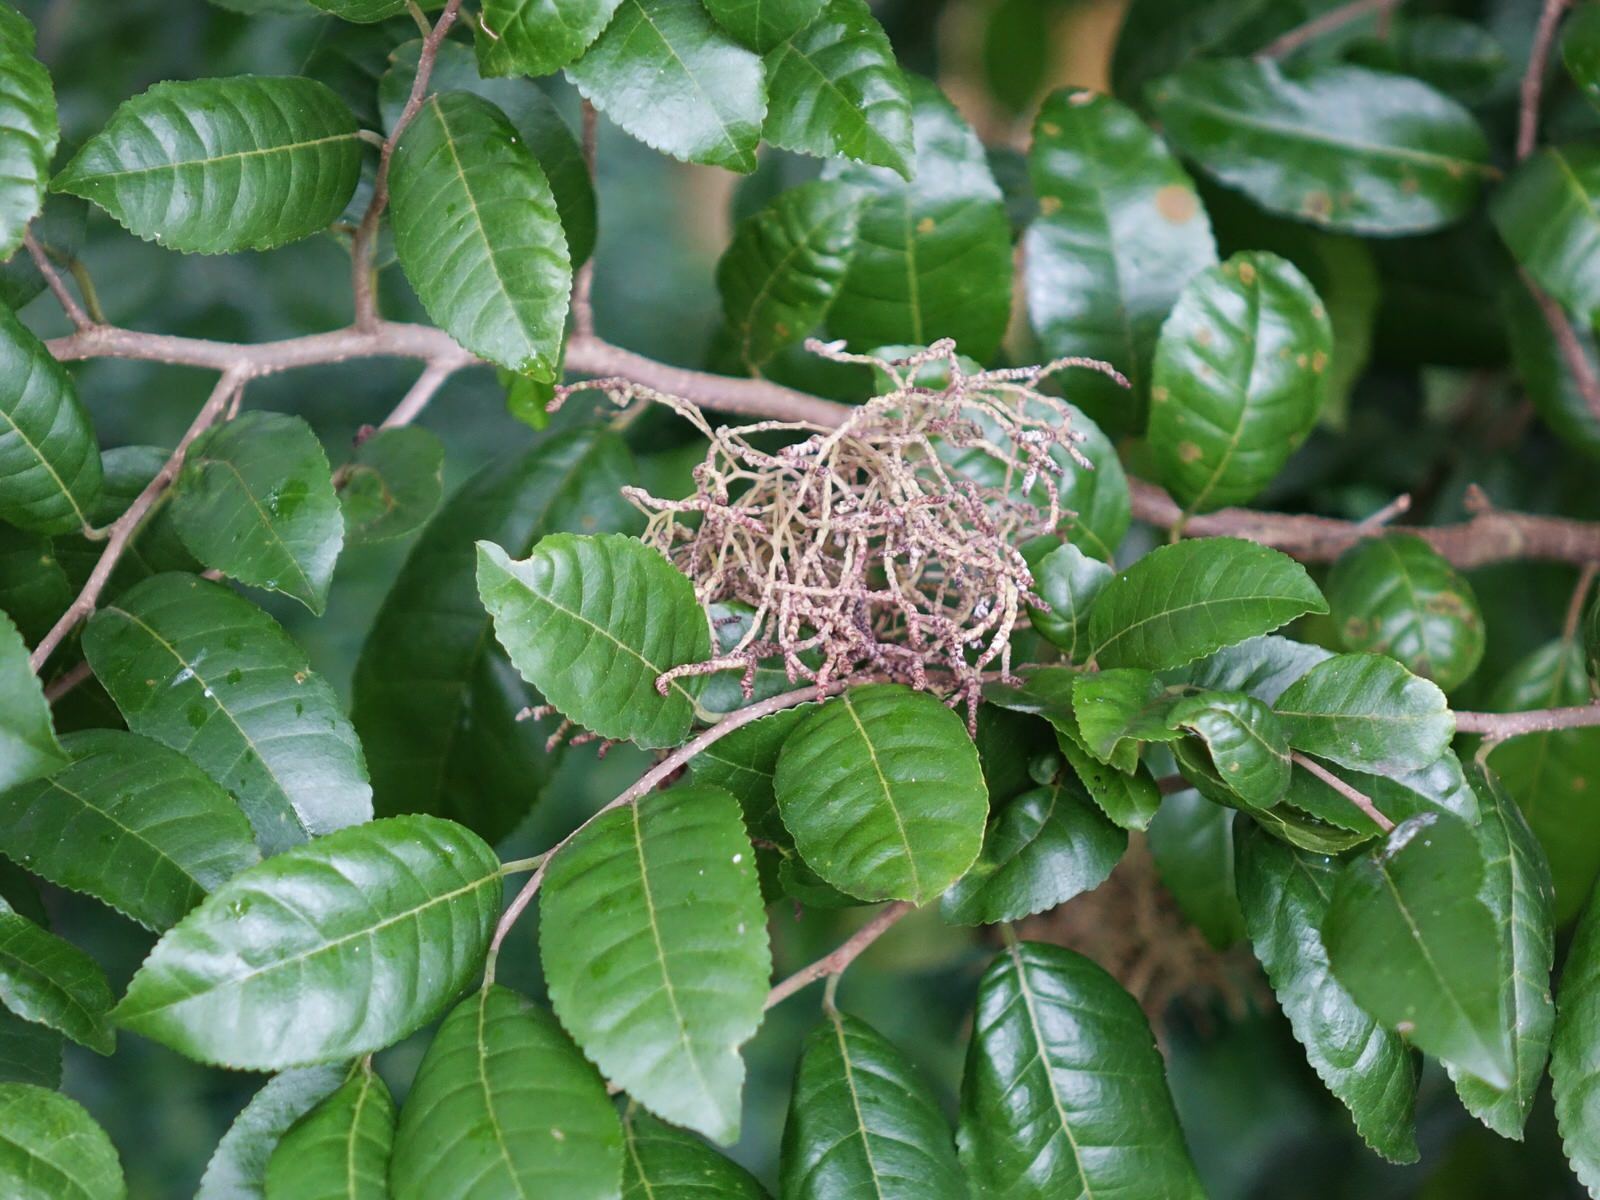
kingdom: Animalia
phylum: Arthropoda
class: Arachnida
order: Trombidiformes
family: Eriophyidae
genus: Eriophyes
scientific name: Eriophyes
